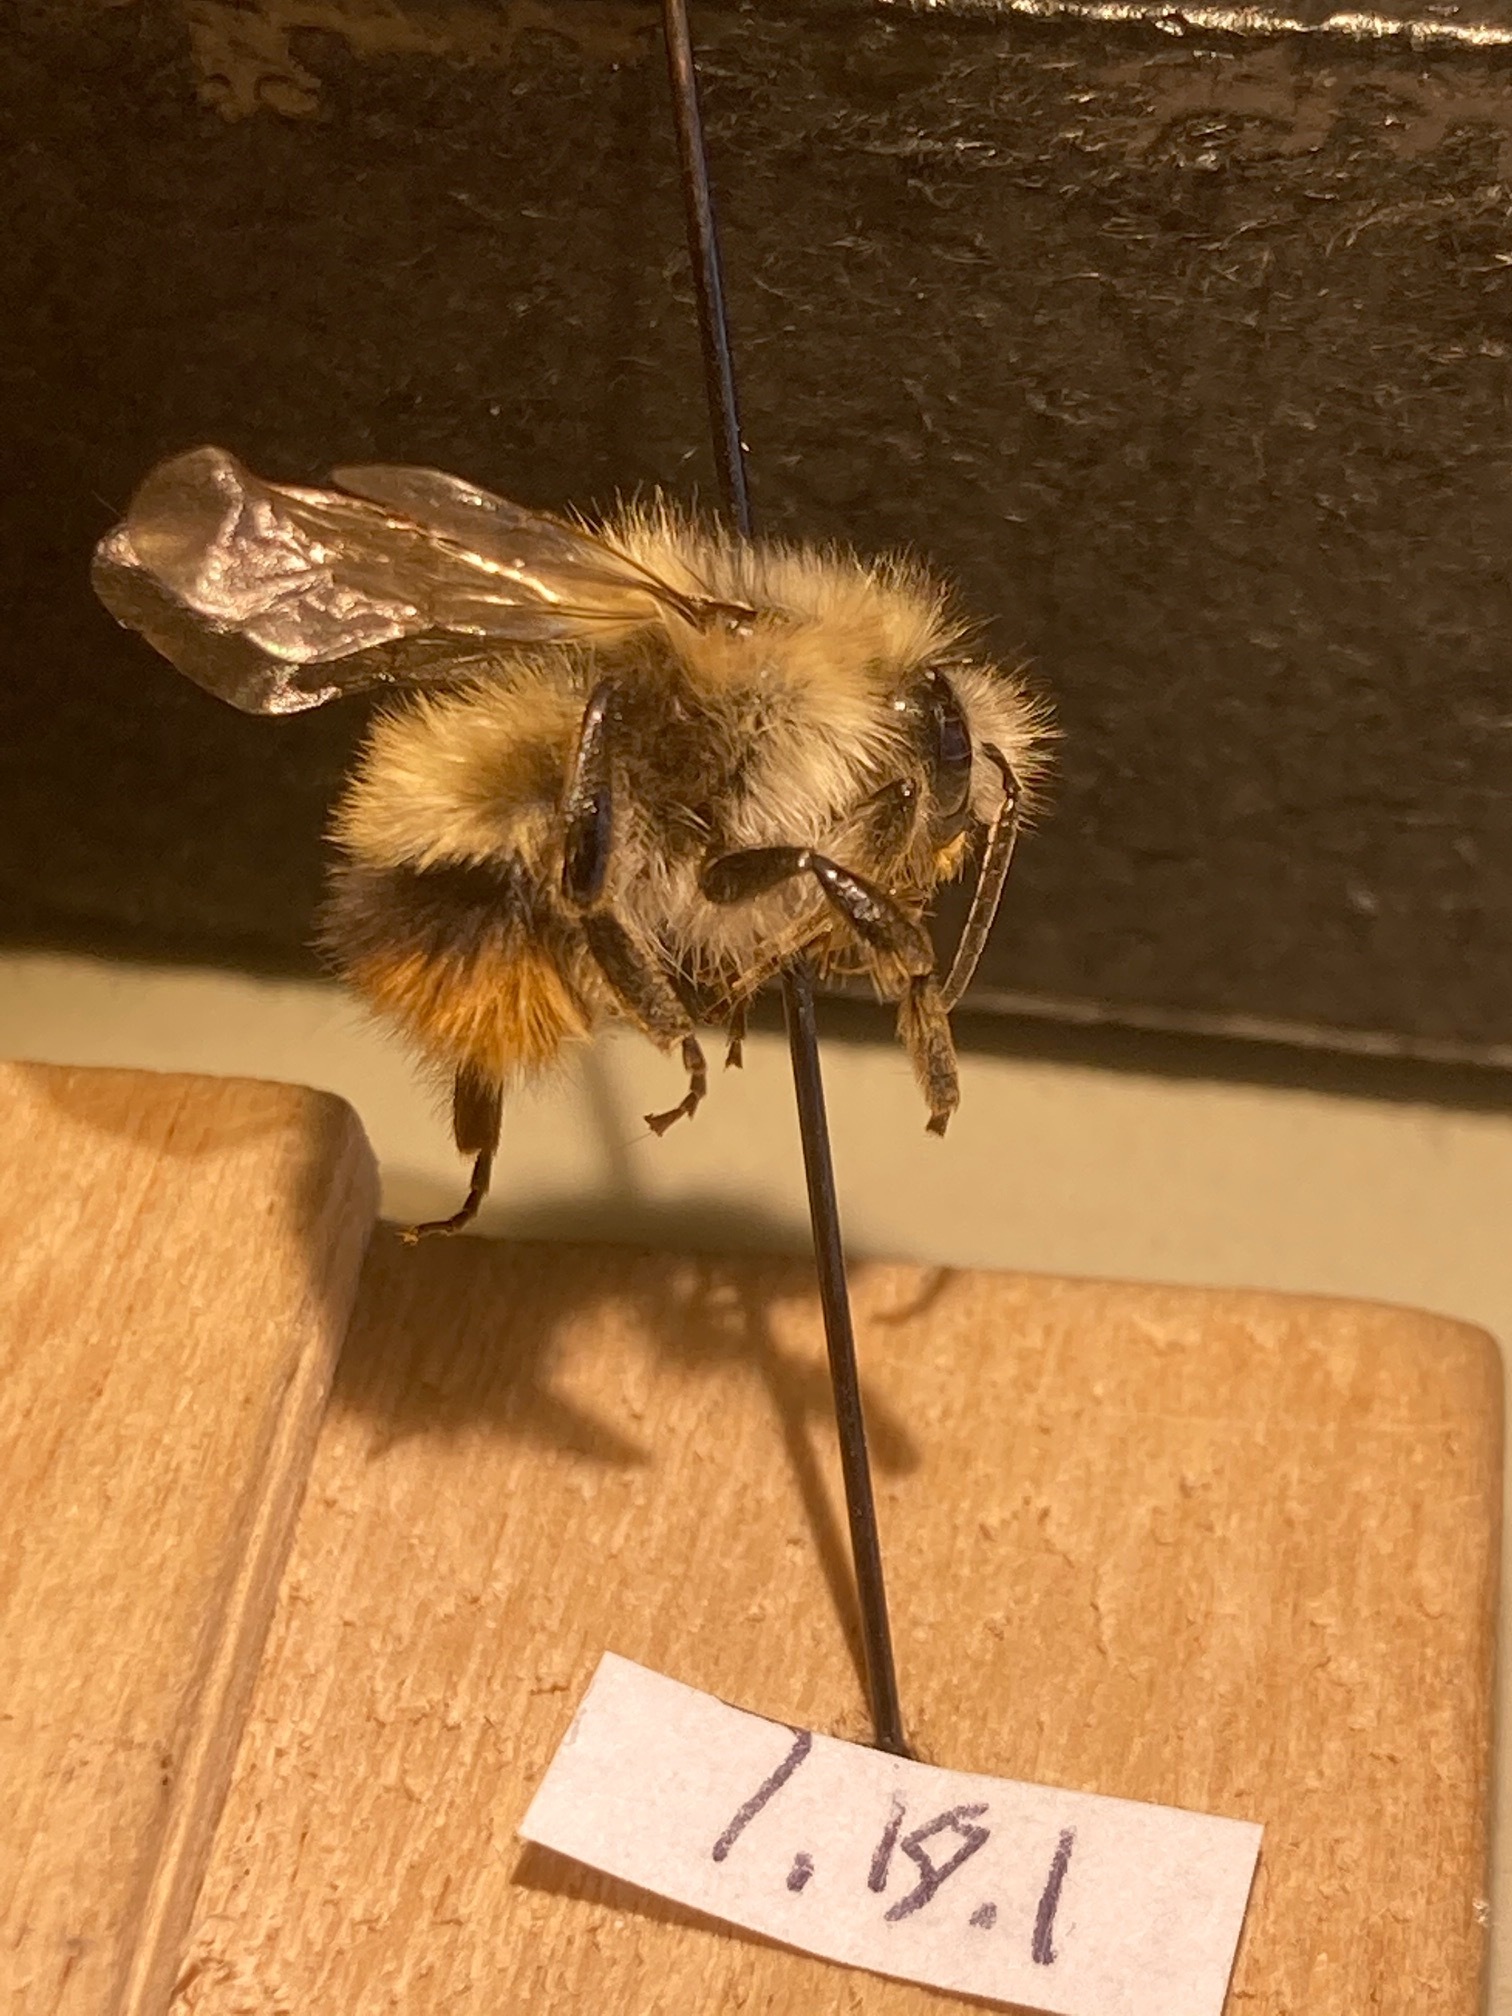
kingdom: Animalia
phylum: Arthropoda
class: Insecta
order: Hymenoptera
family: Apidae
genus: Bombus
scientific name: Bombus mixtus
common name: Fuzzy-horned bumble bee
